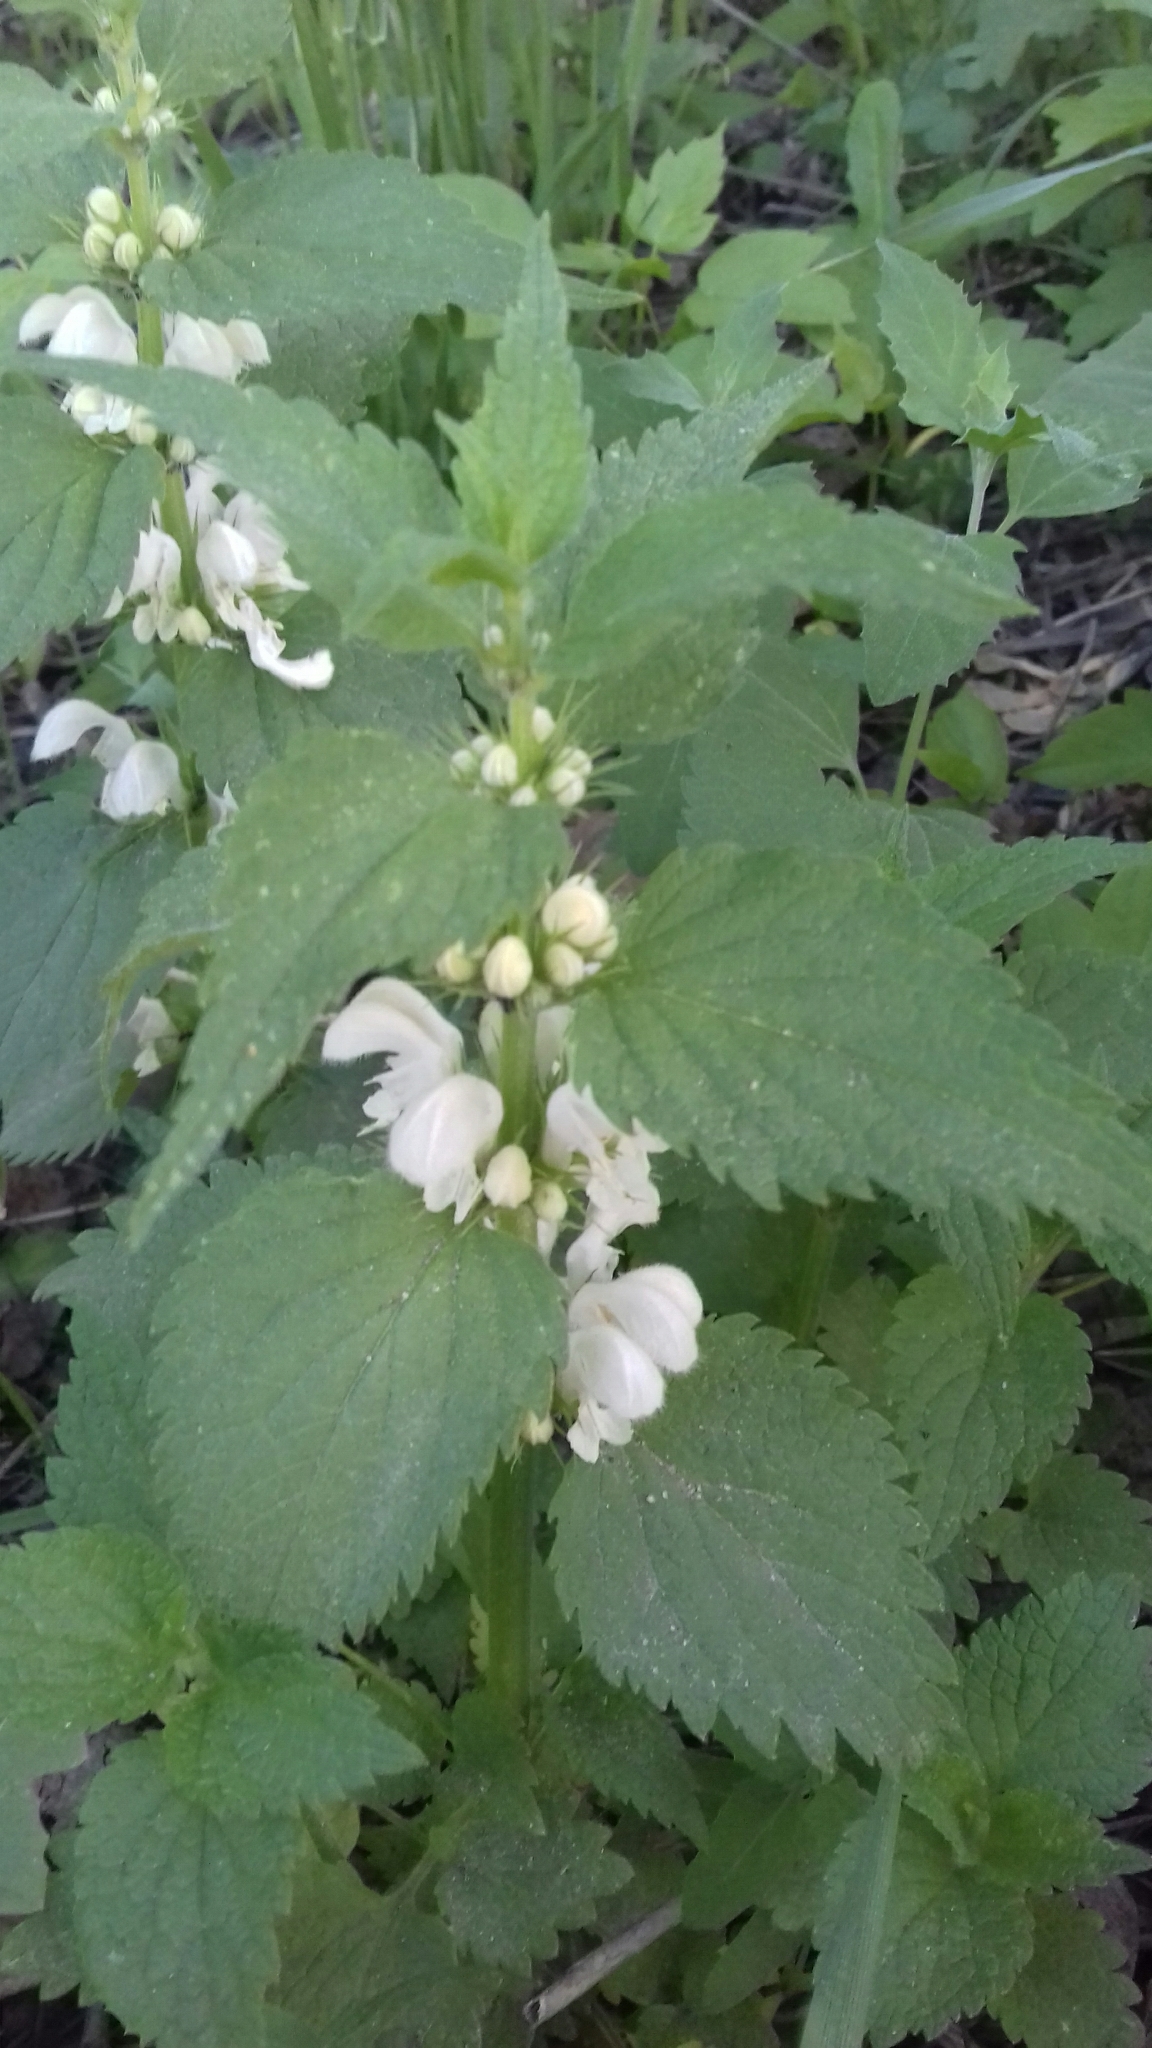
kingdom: Plantae
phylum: Tracheophyta
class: Magnoliopsida
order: Lamiales
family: Lamiaceae
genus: Lamium
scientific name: Lamium album
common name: White dead-nettle
